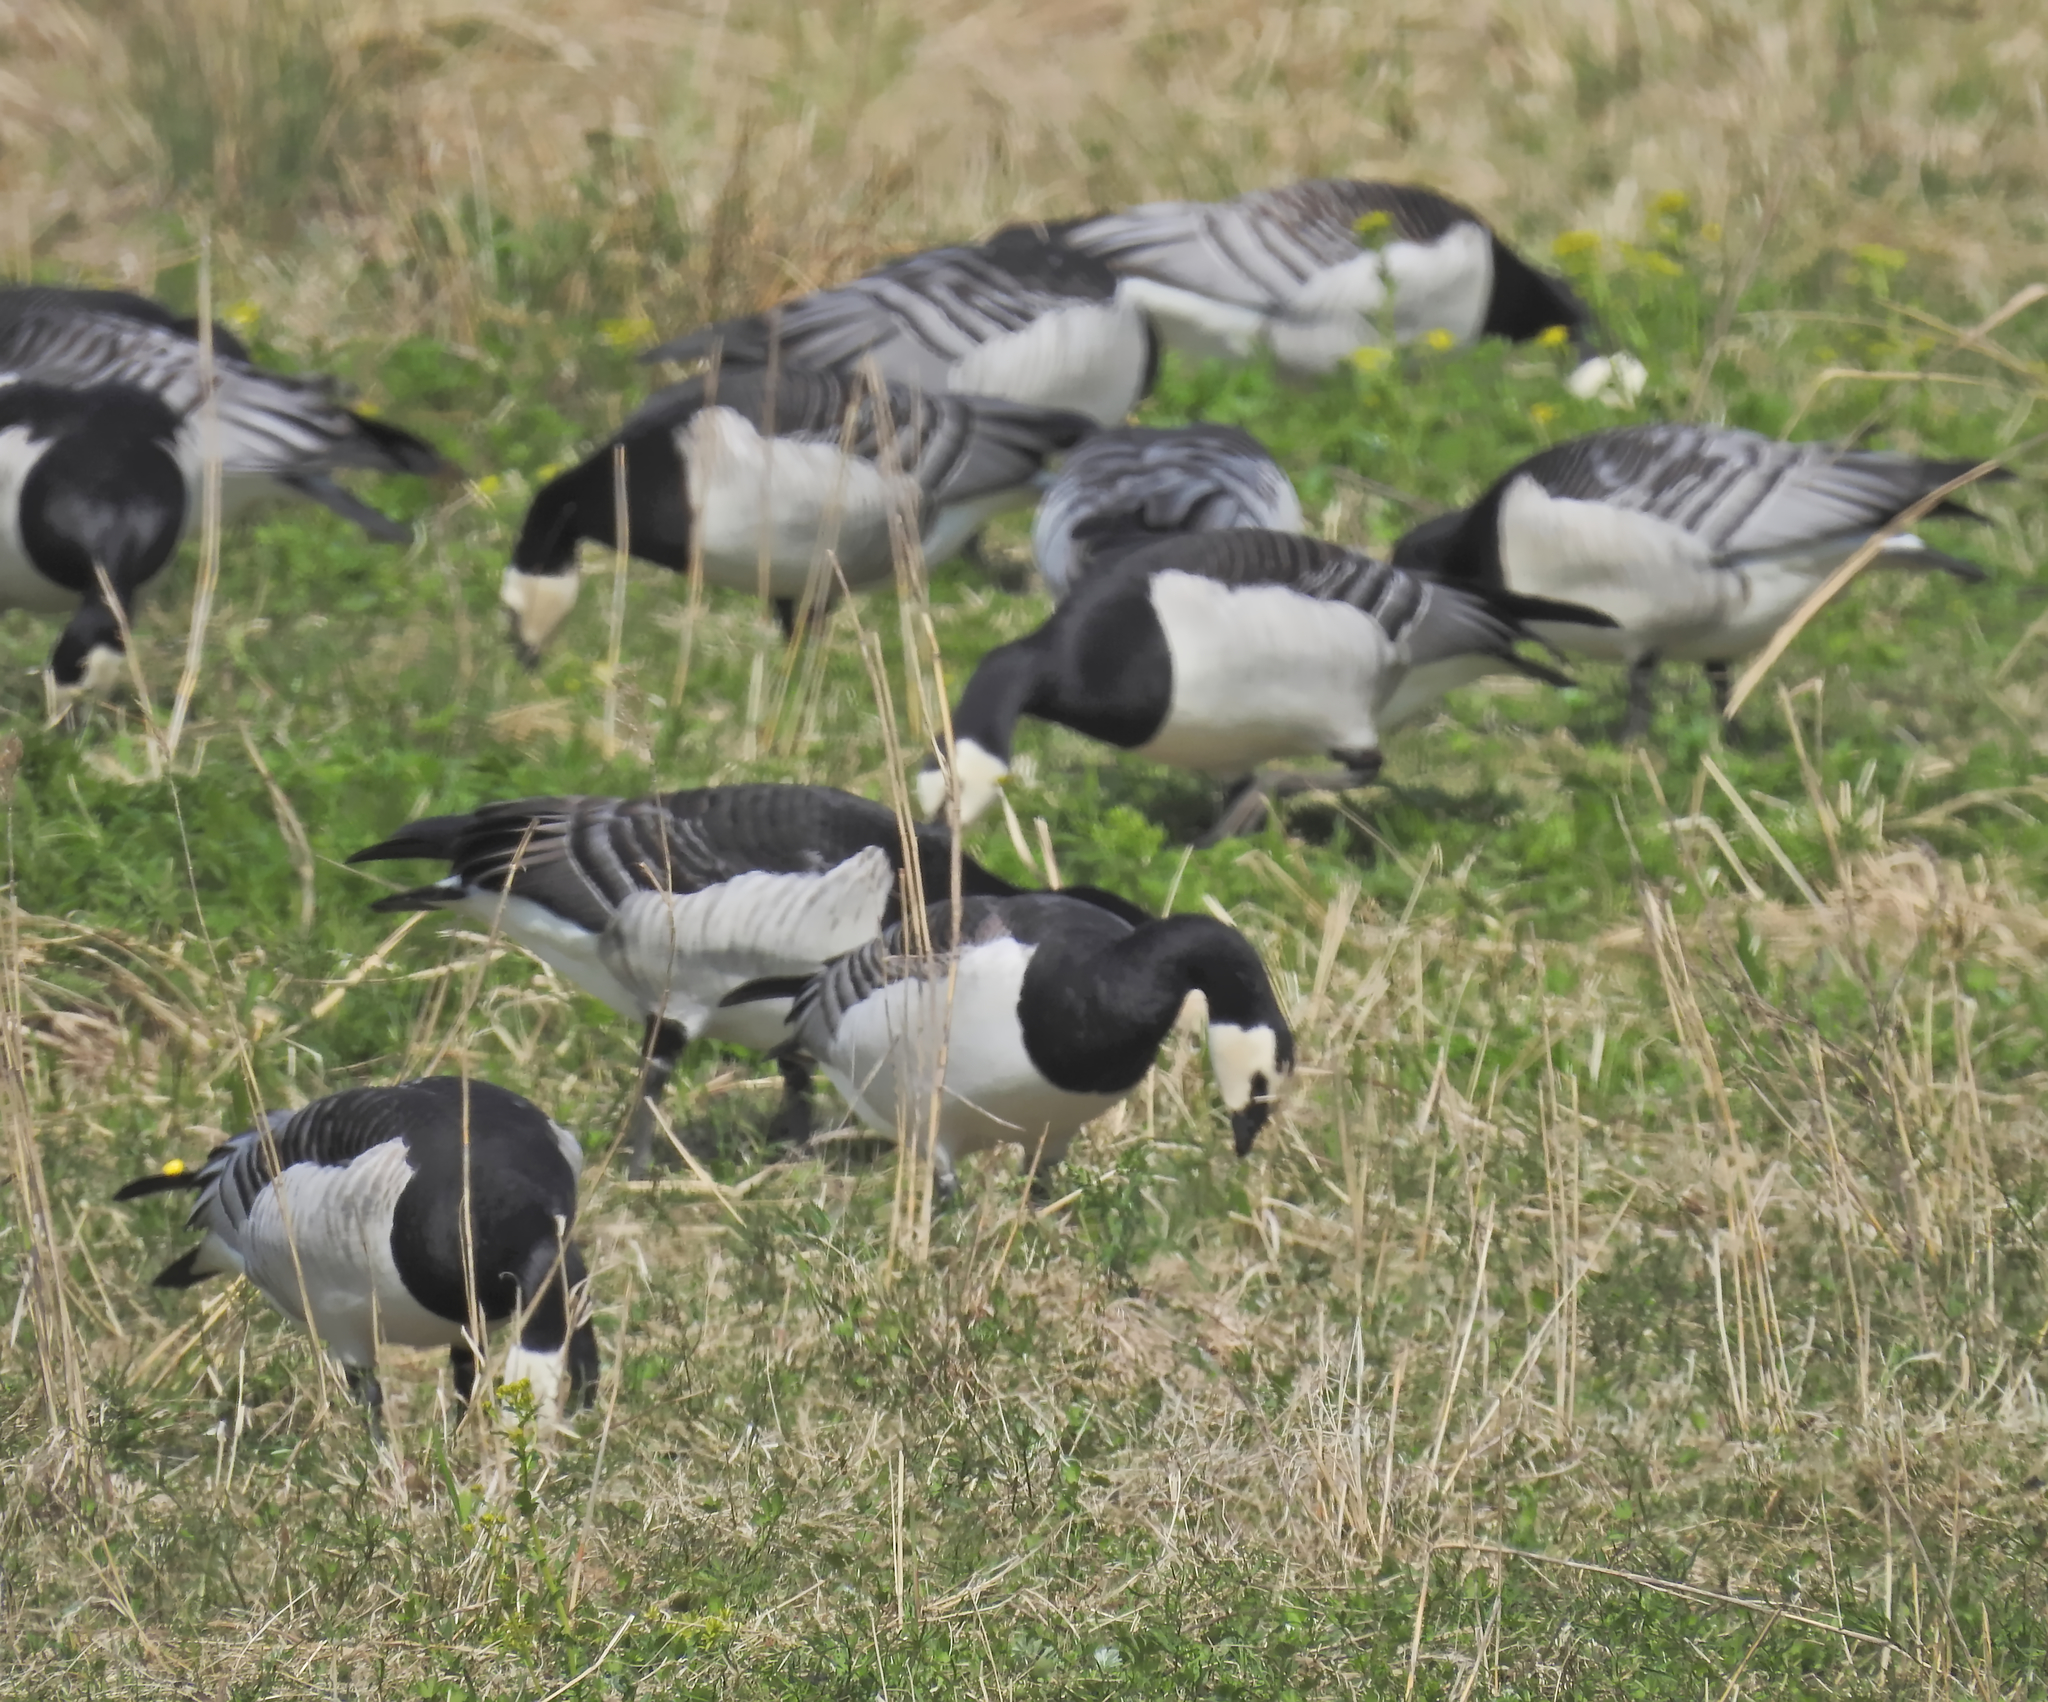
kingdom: Animalia
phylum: Chordata
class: Aves
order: Anseriformes
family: Anatidae
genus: Branta
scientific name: Branta leucopsis
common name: Barnacle goose
